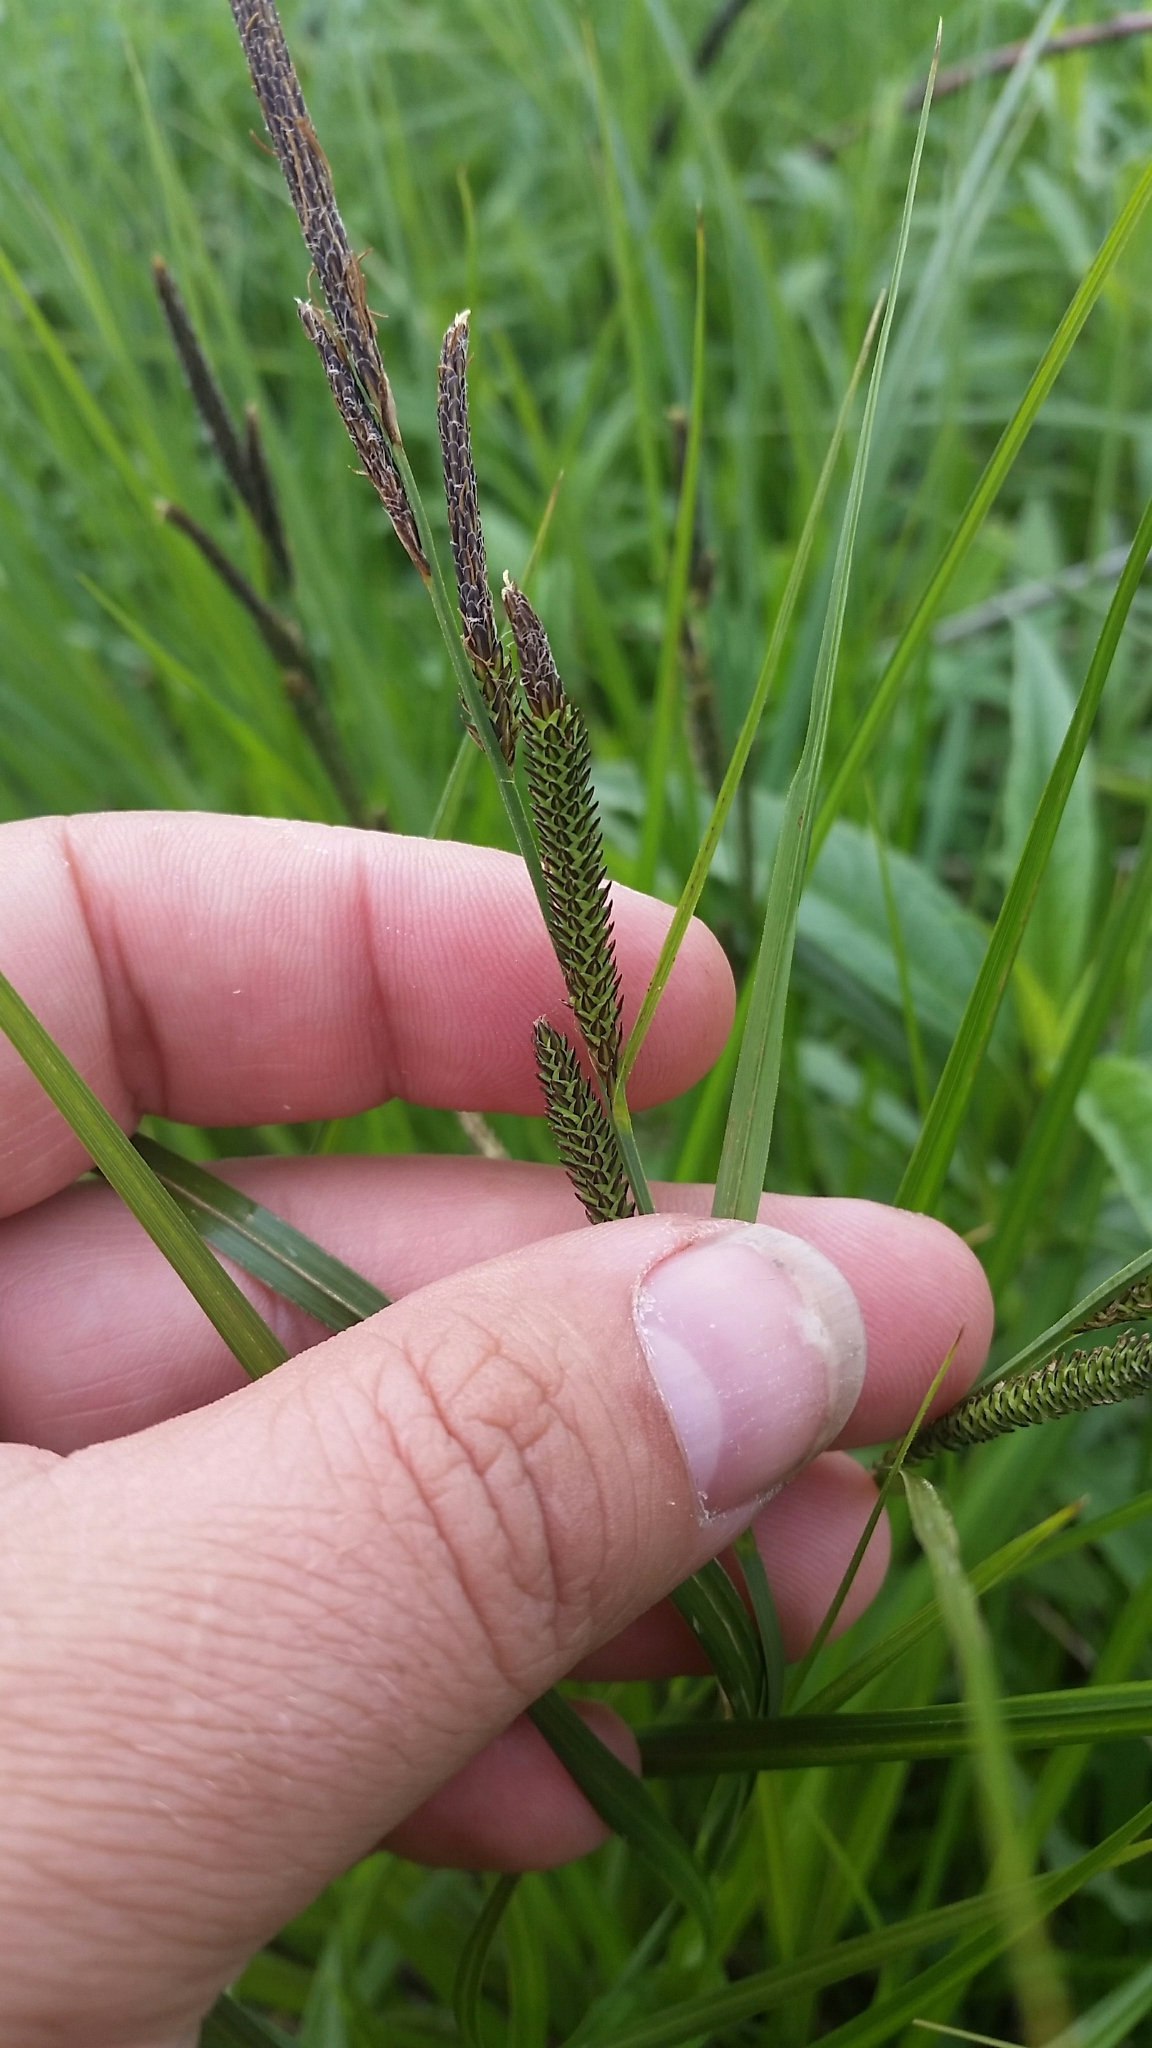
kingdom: Plantae
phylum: Tracheophyta
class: Liliopsida
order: Poales
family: Cyperaceae
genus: Carex
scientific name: Carex stricta
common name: Hummock sedge
